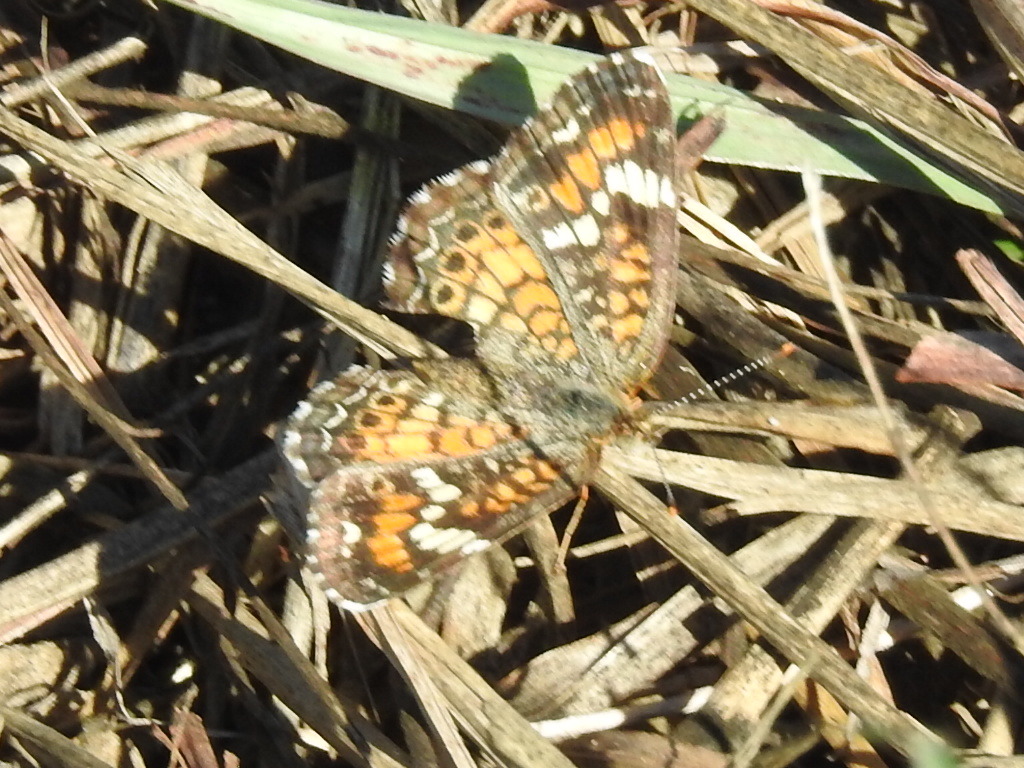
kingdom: Animalia
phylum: Arthropoda
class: Insecta
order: Lepidoptera
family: Nymphalidae
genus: Phyciodes
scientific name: Phyciodes phaon
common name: Phaon crescent
